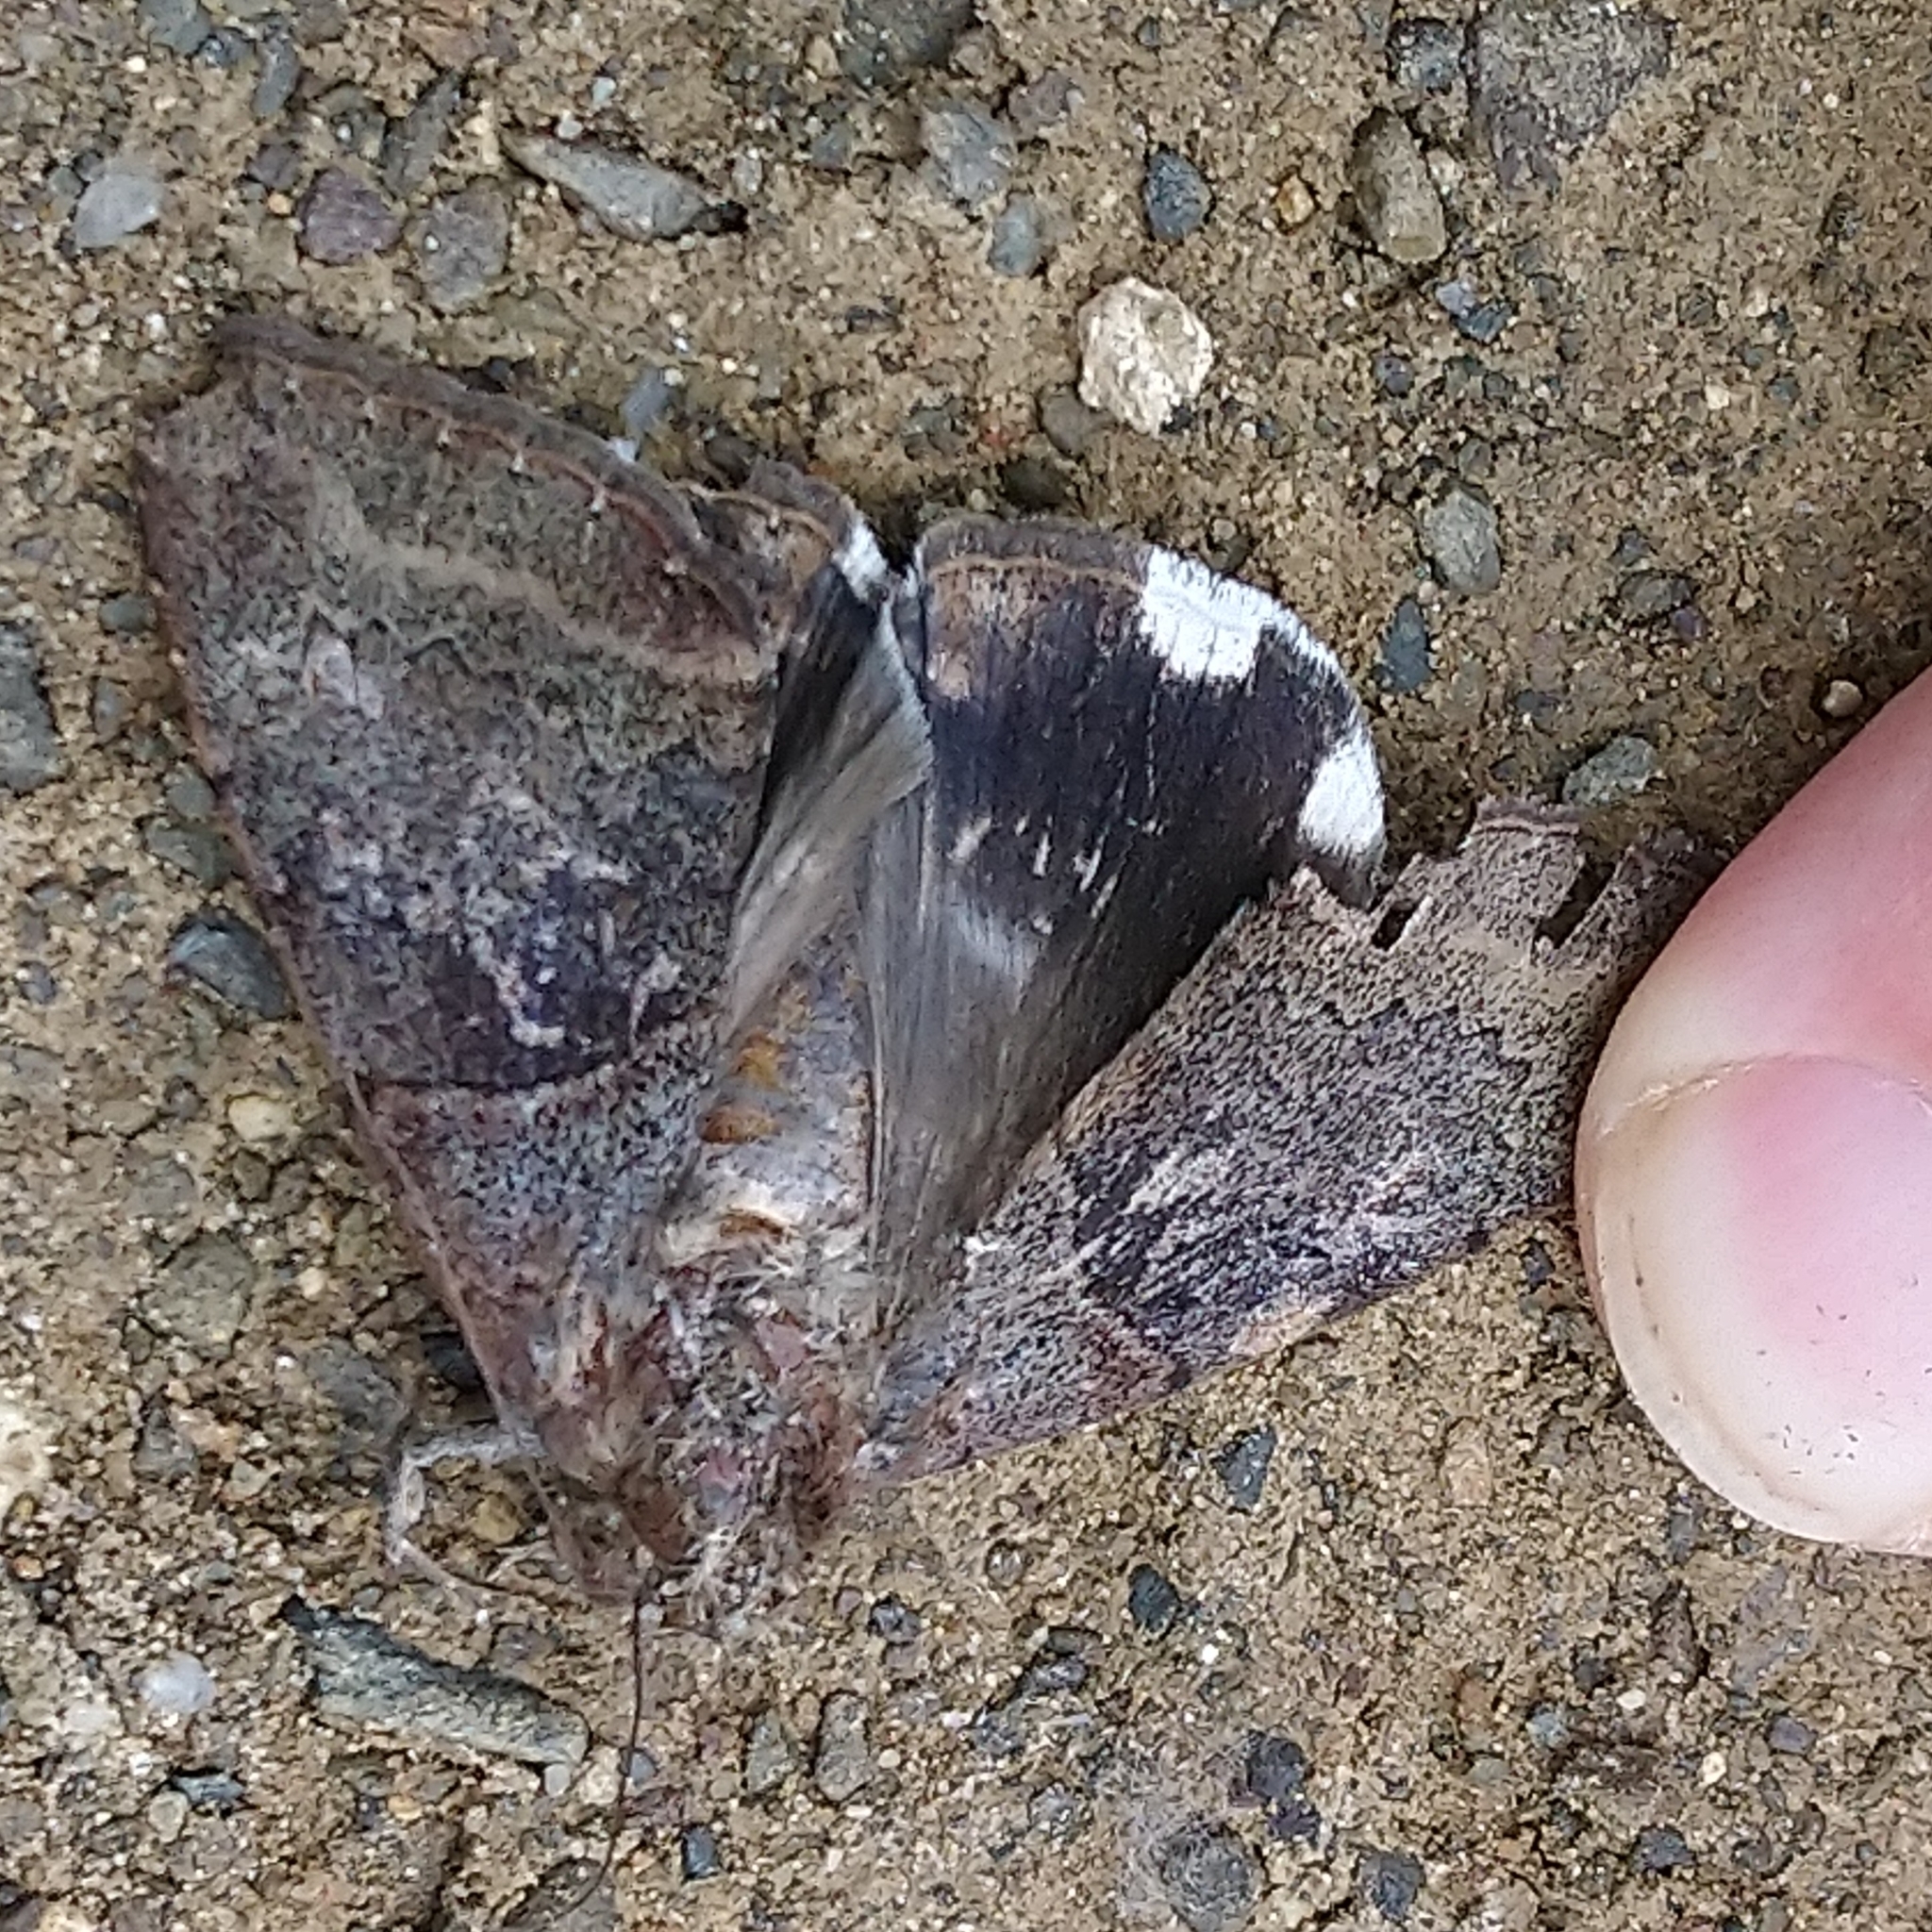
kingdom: Animalia
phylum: Arthropoda
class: Insecta
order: Lepidoptera
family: Erebidae
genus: Achaea
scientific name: Achaea lienardi
